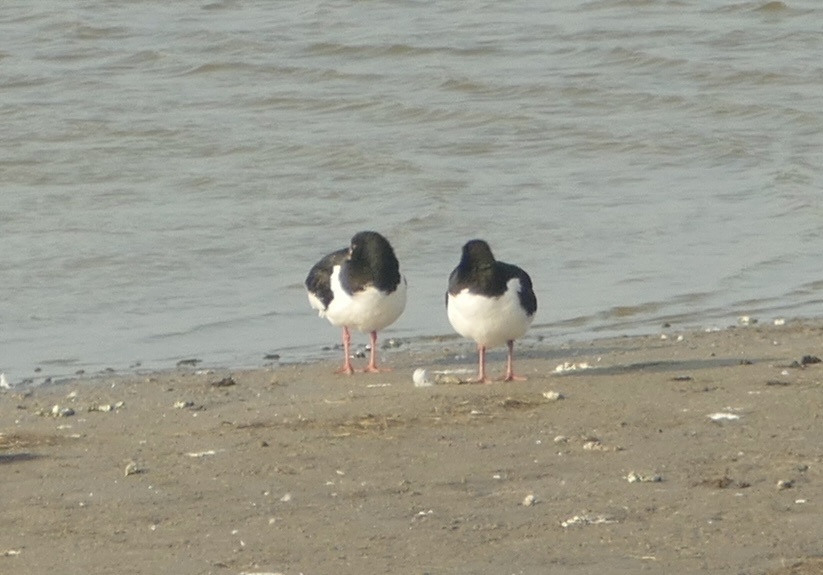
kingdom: Animalia
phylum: Chordata
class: Aves
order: Charadriiformes
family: Haematopodidae
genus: Haematopus
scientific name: Haematopus ostralegus
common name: Eurasian oystercatcher
